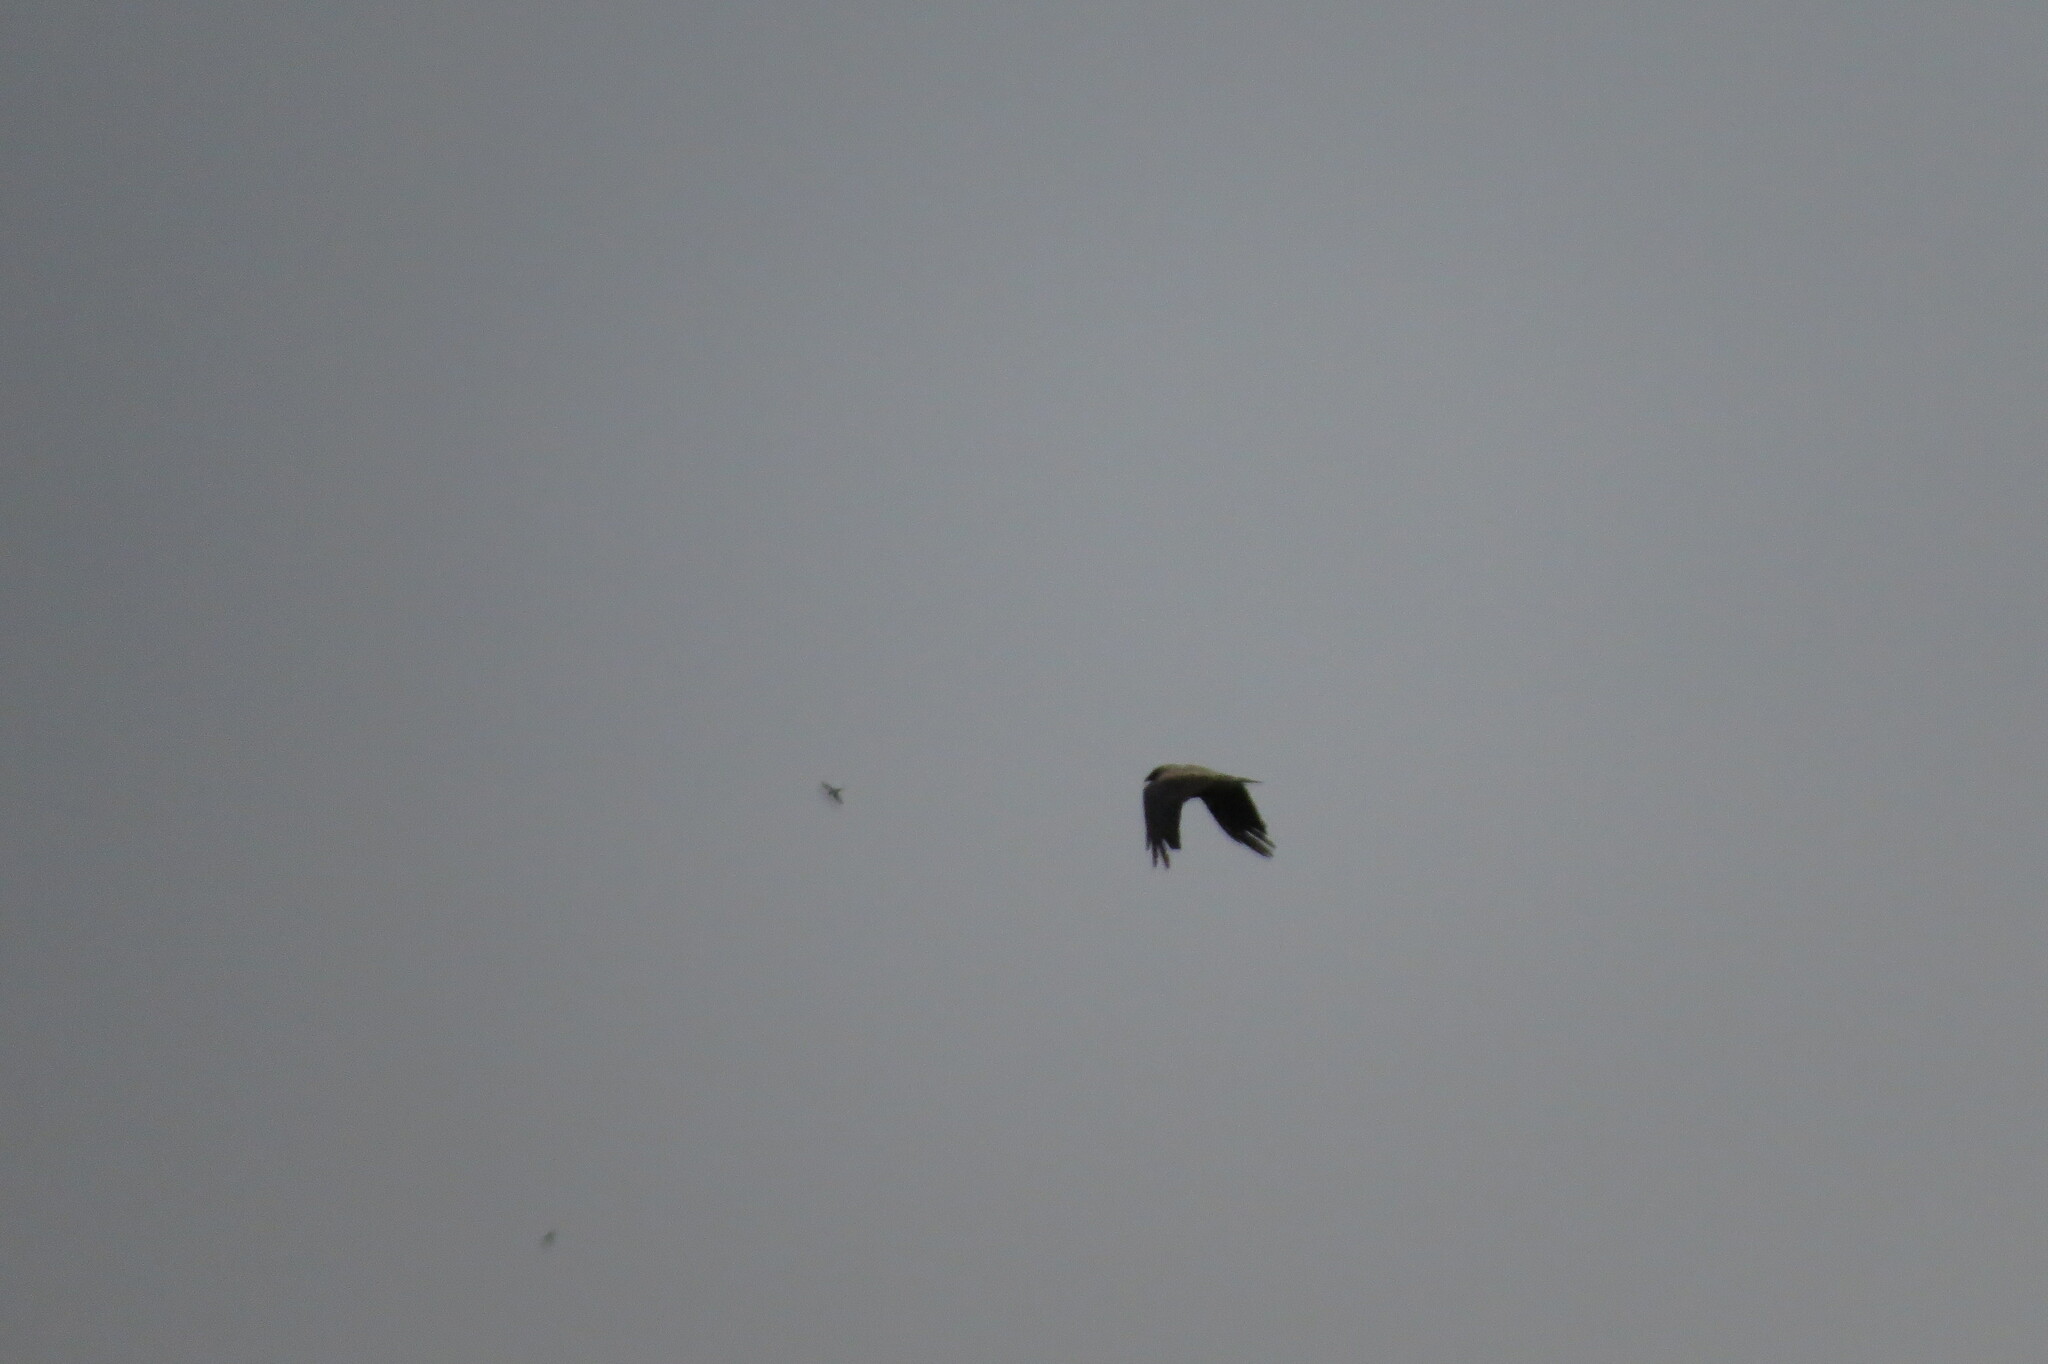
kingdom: Animalia
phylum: Chordata
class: Aves
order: Passeriformes
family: Corvidae
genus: Corvus
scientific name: Corvus cornix
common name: Hooded crow
